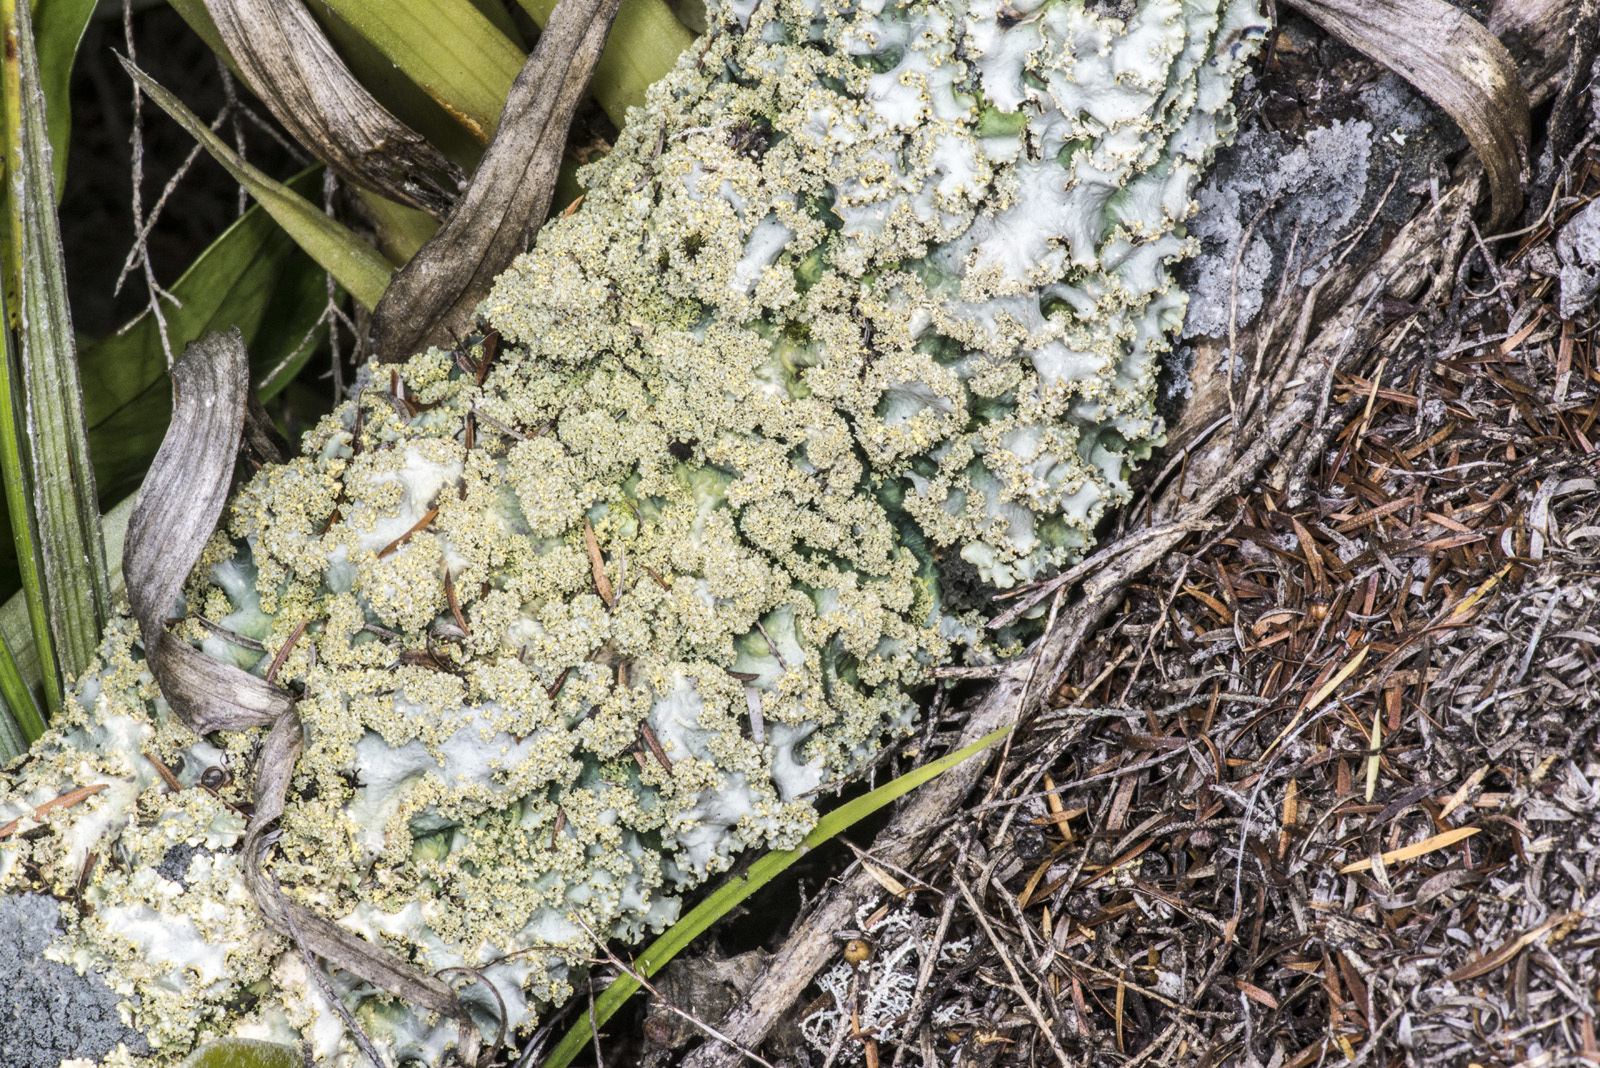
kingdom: Fungi
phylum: Ascomycota
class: Lecanoromycetes
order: Peltigerales
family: Lobariaceae
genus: Podostictina
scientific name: Podostictina pickeringii
